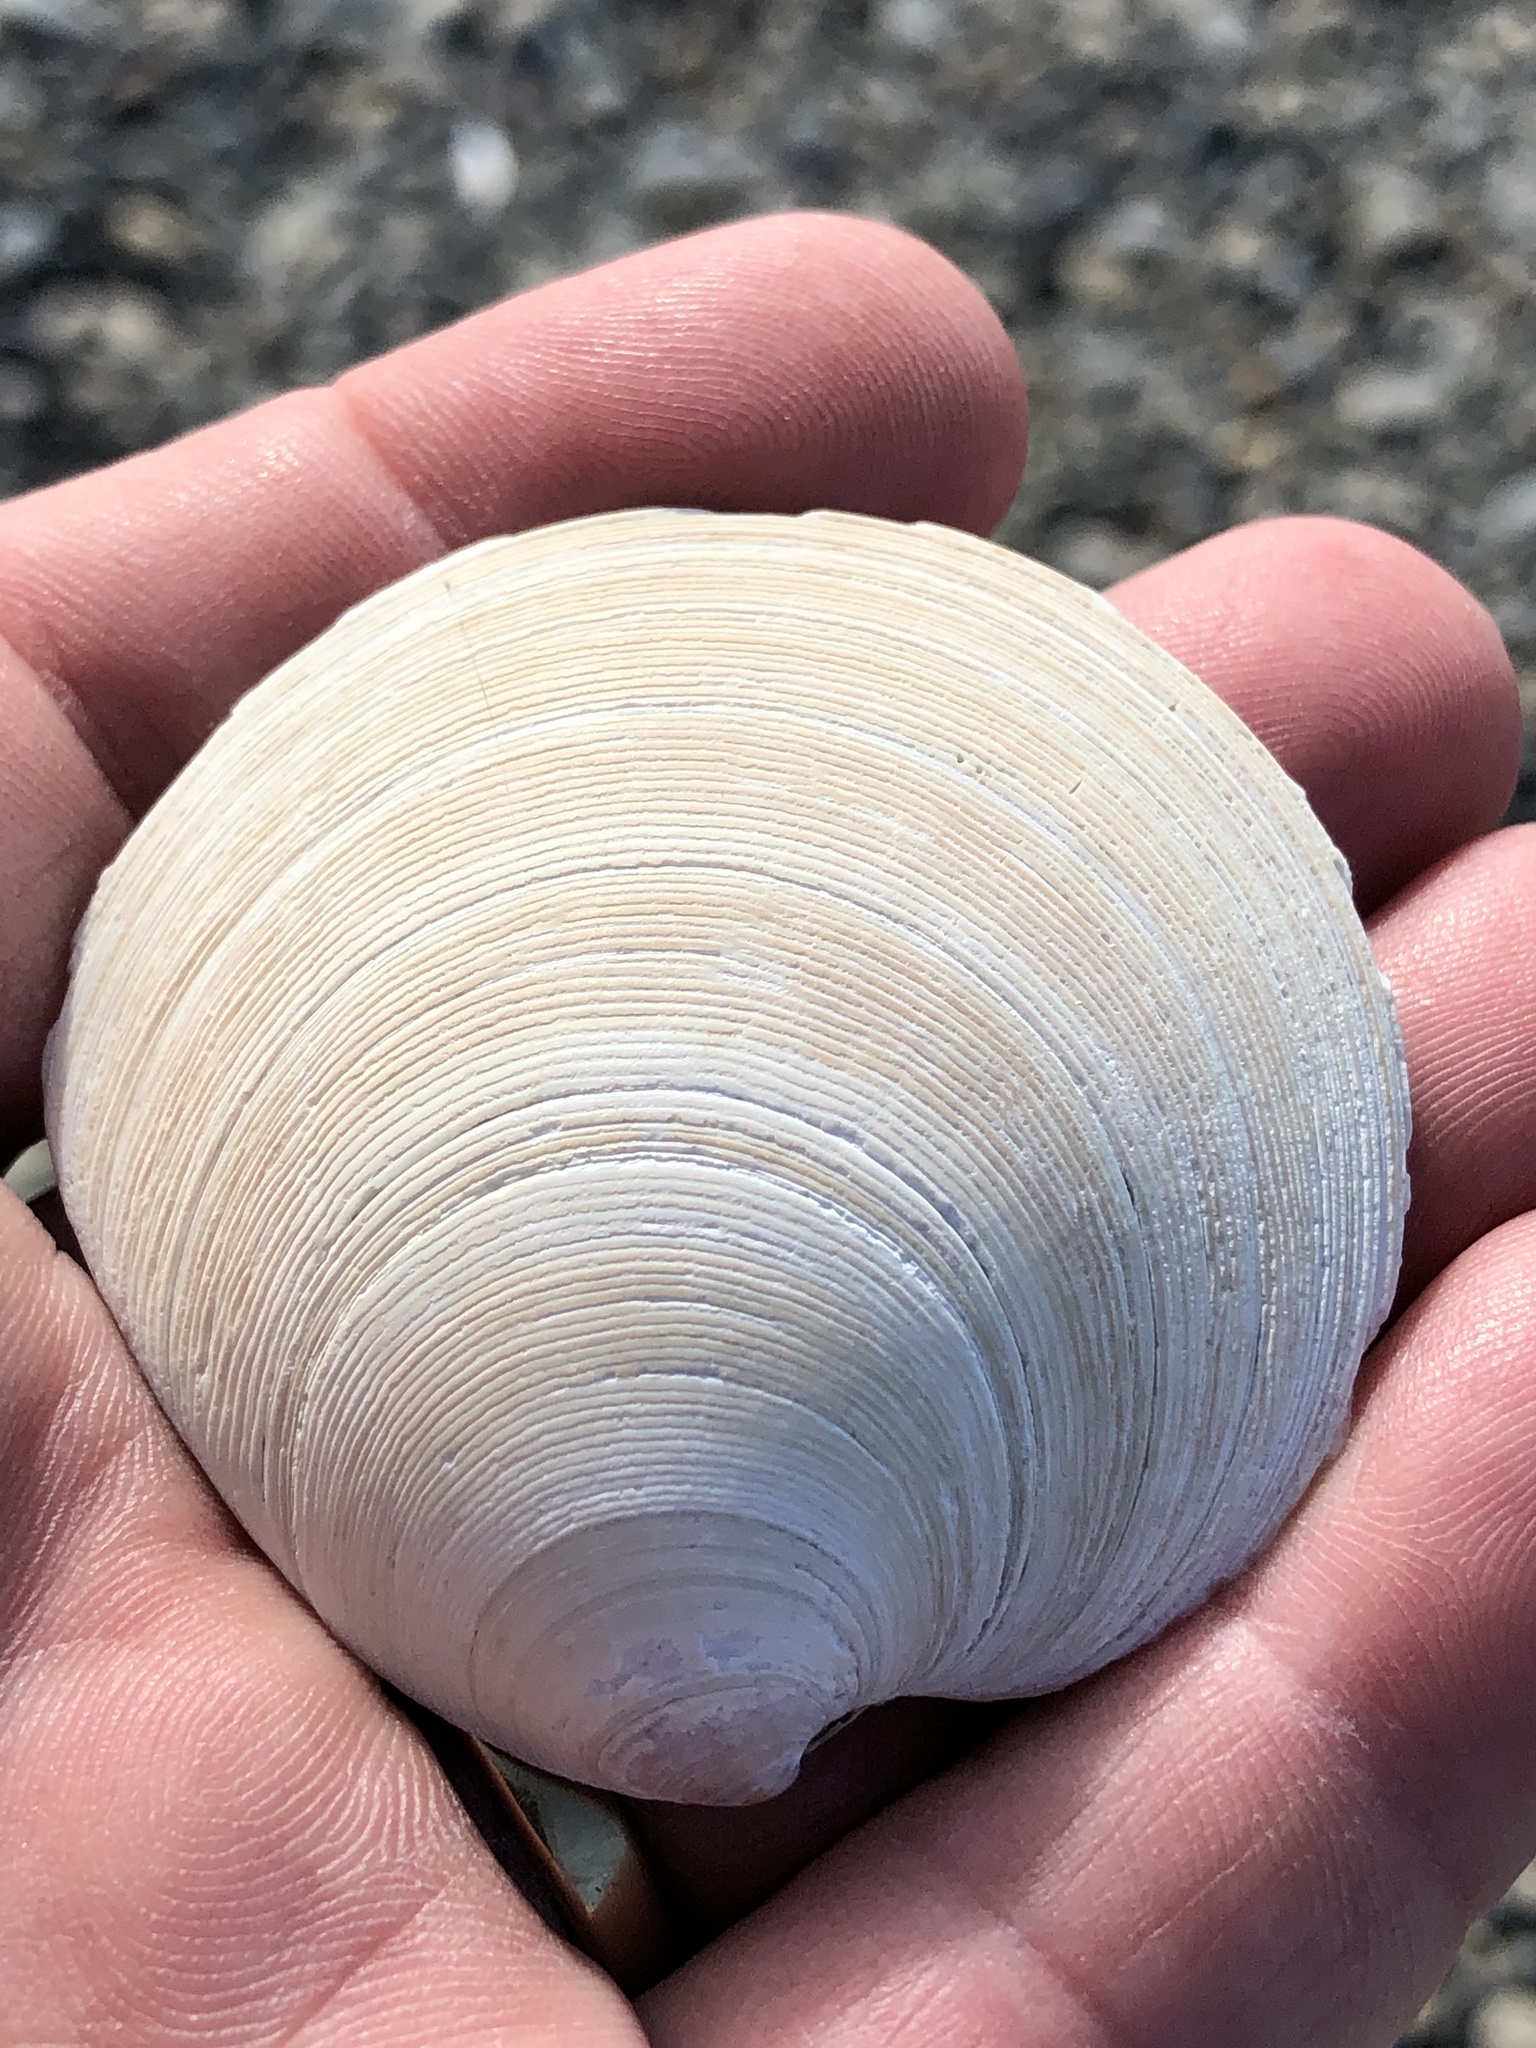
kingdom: Animalia
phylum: Mollusca
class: Bivalvia
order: Venerida
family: Veneridae
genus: Dosinia
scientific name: Dosinia anus
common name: Old-woman dosinia
